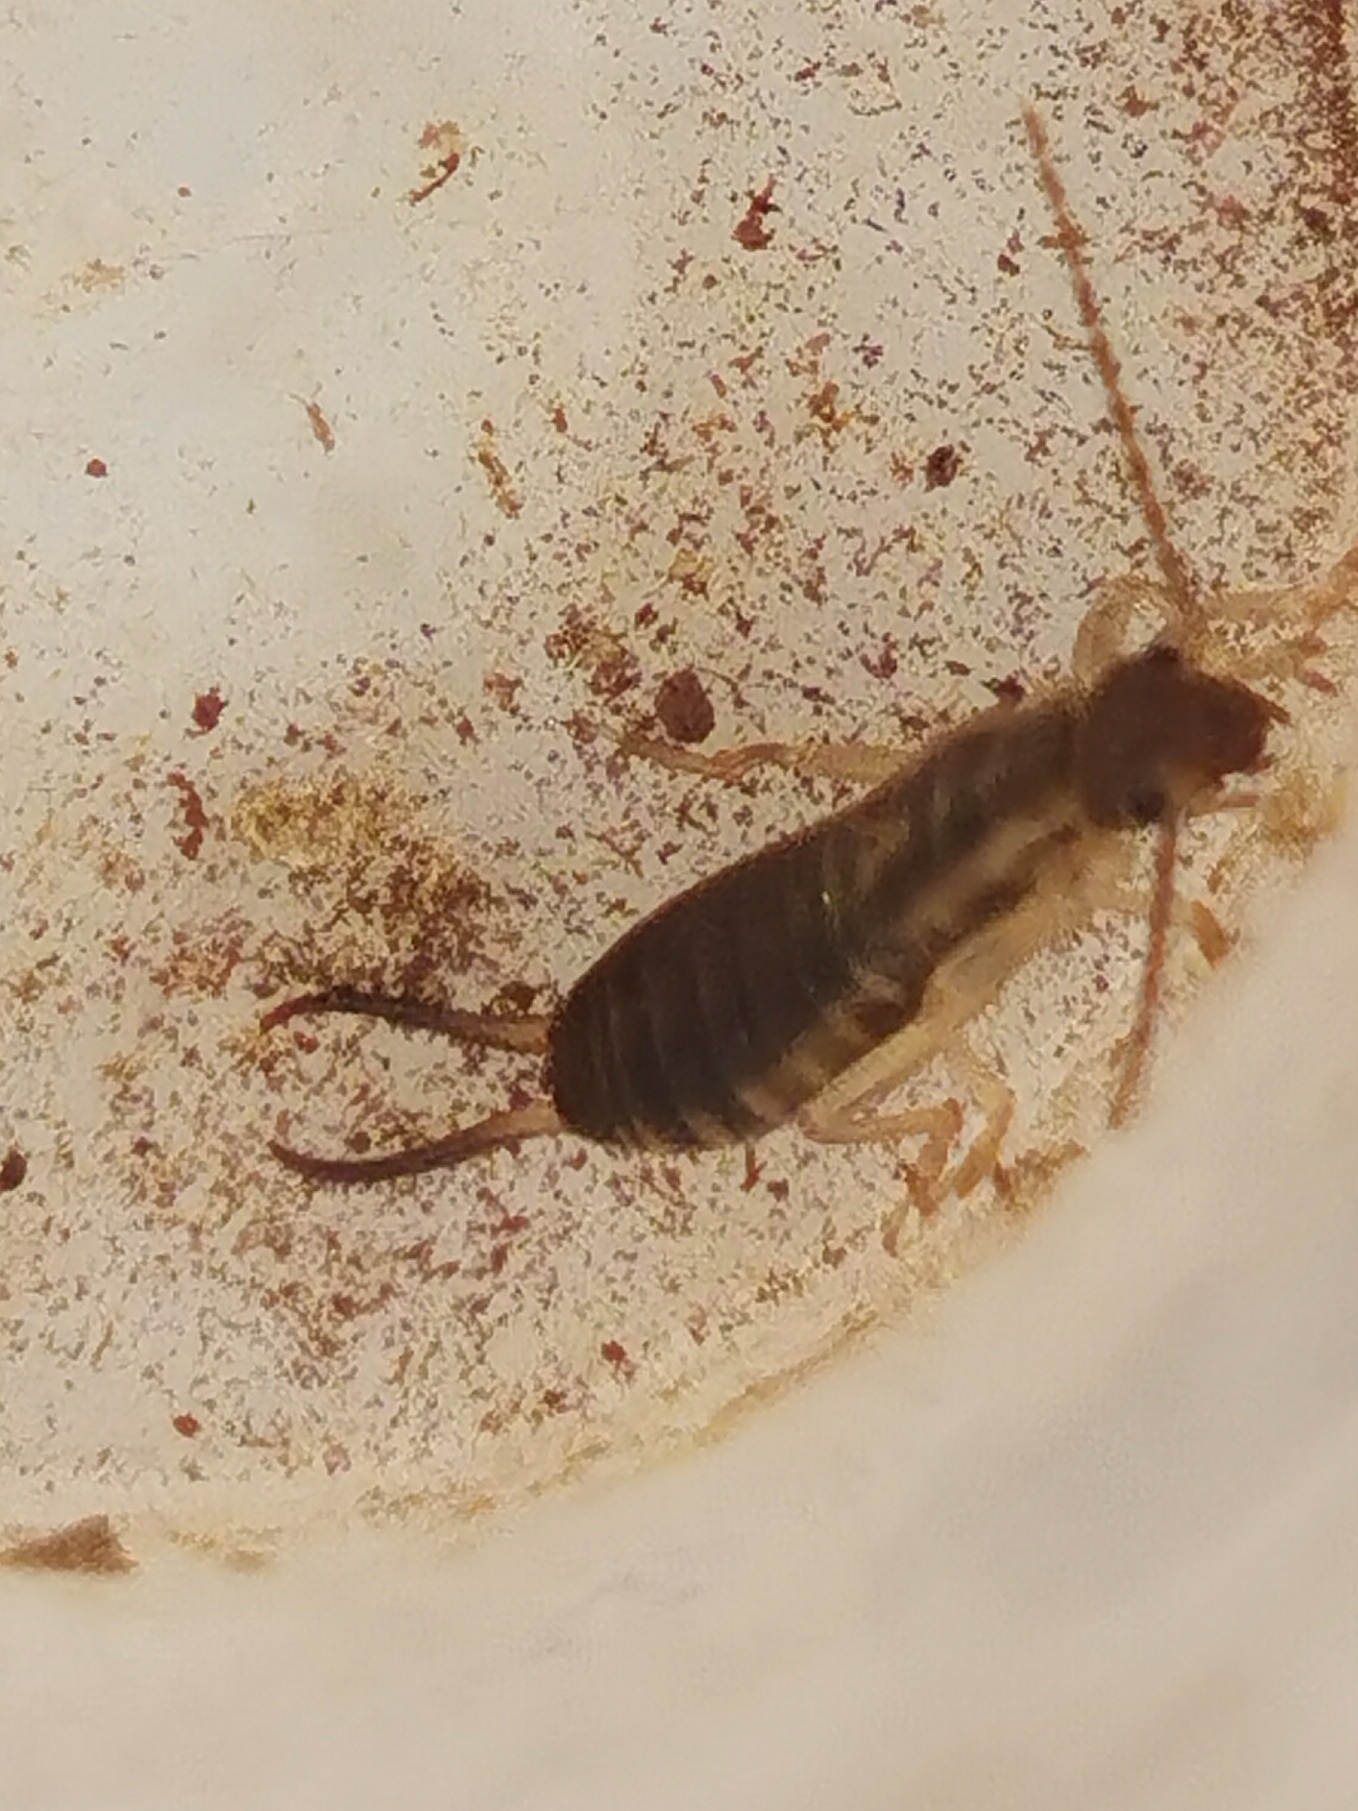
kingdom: Animalia
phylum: Arthropoda
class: Insecta
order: Dermaptera
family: Forficulidae
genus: Forficula
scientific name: Forficula
